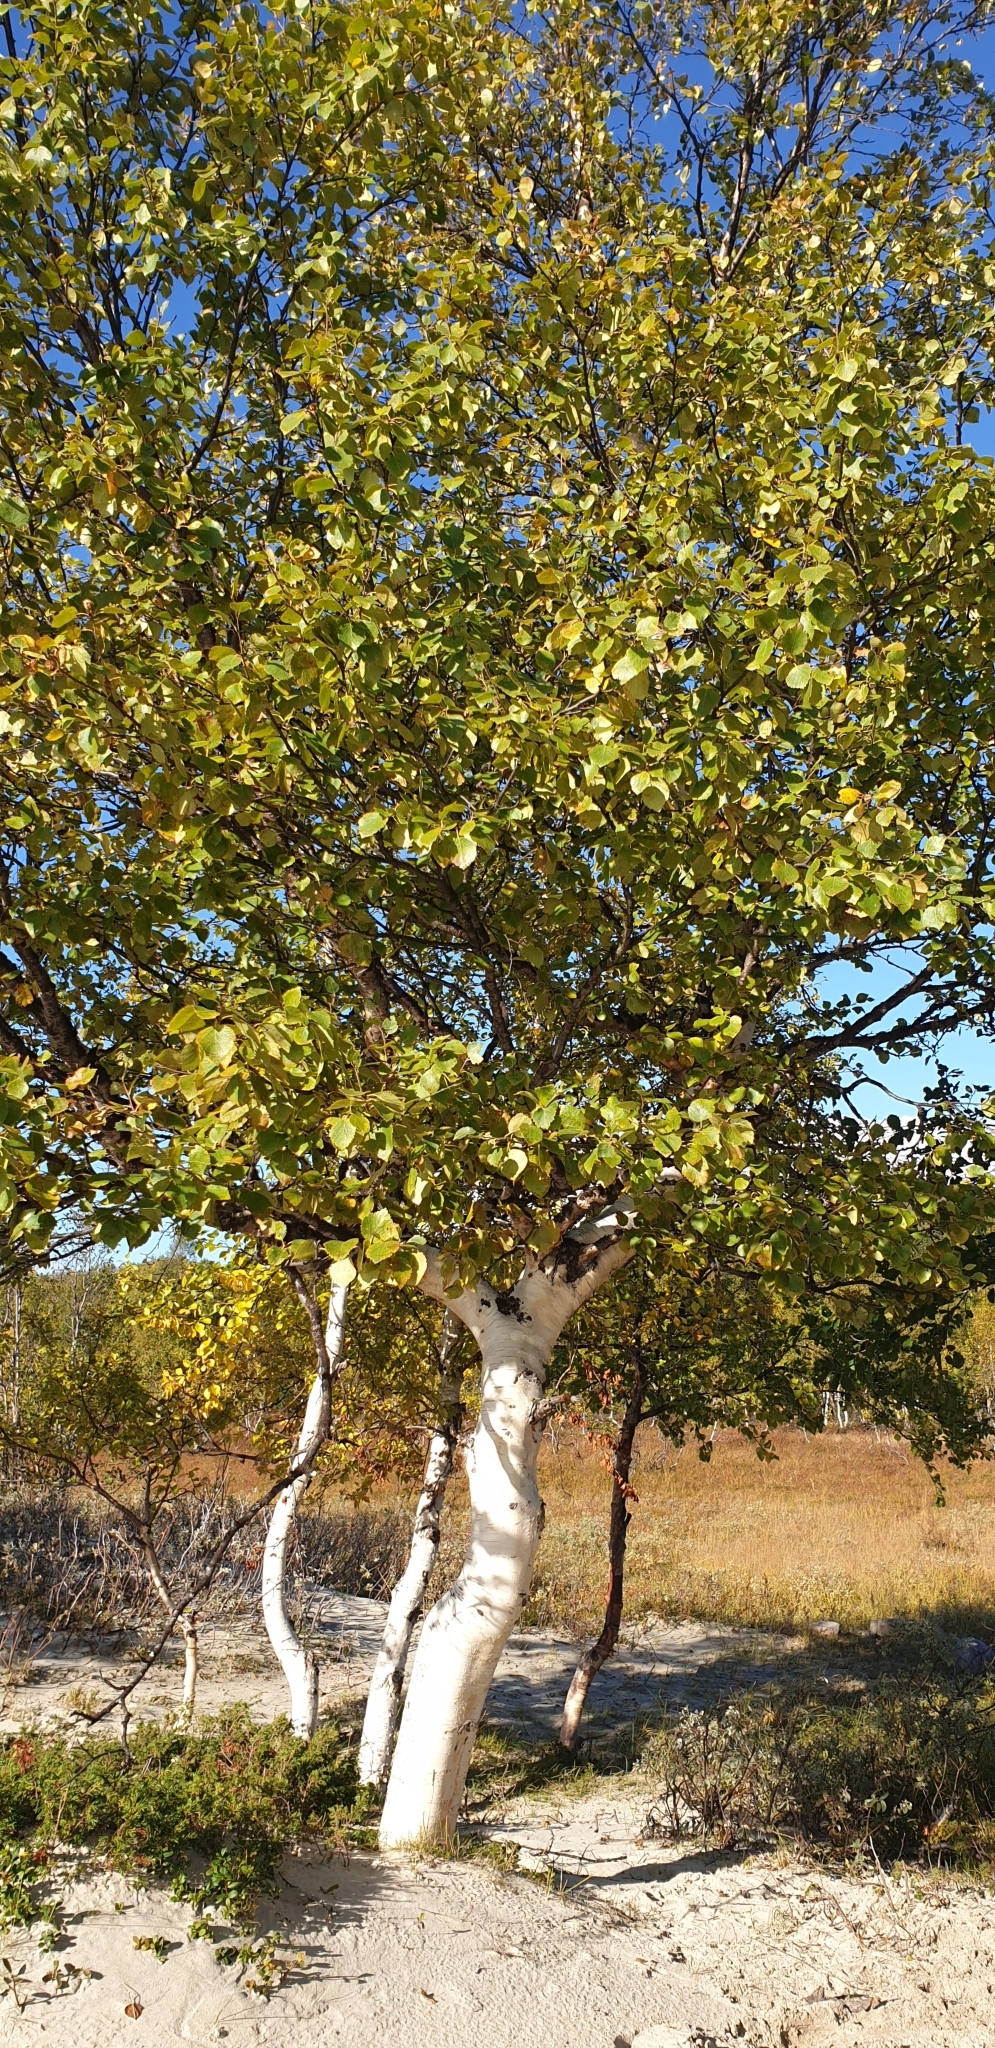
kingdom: Plantae
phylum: Tracheophyta
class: Magnoliopsida
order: Fagales
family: Betulaceae
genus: Betula
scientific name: Betula pubescens
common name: Downy birch
